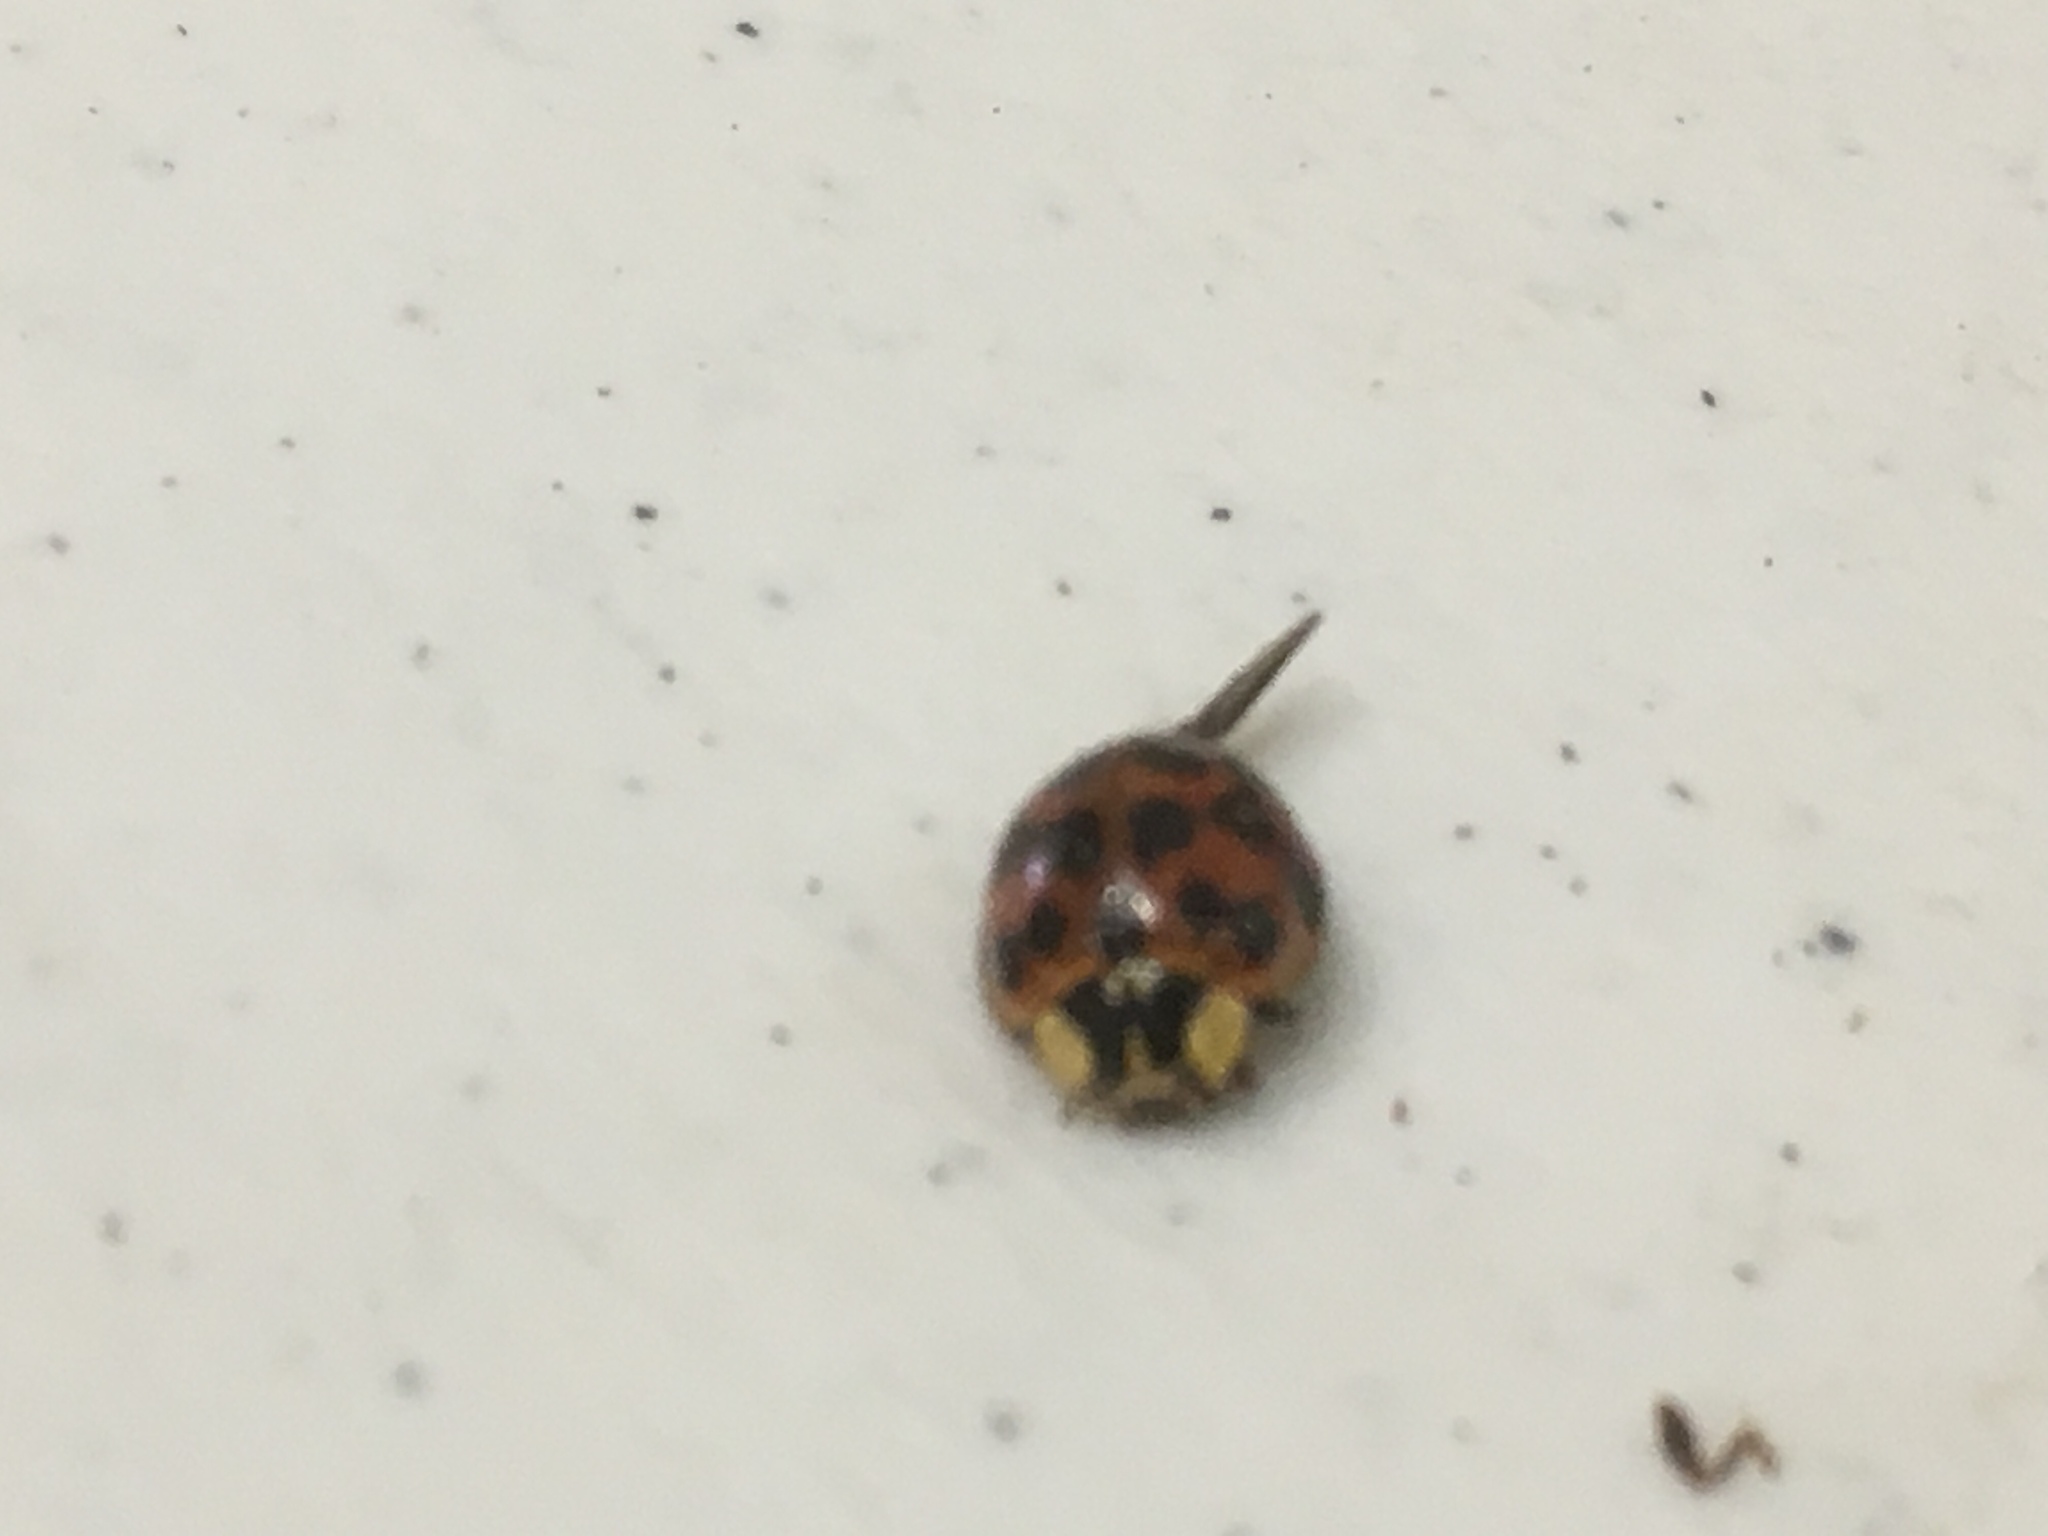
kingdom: Animalia
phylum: Arthropoda
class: Insecta
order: Coleoptera
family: Coccinellidae
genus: Harmonia
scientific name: Harmonia axyridis
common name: Harlequin ladybird
